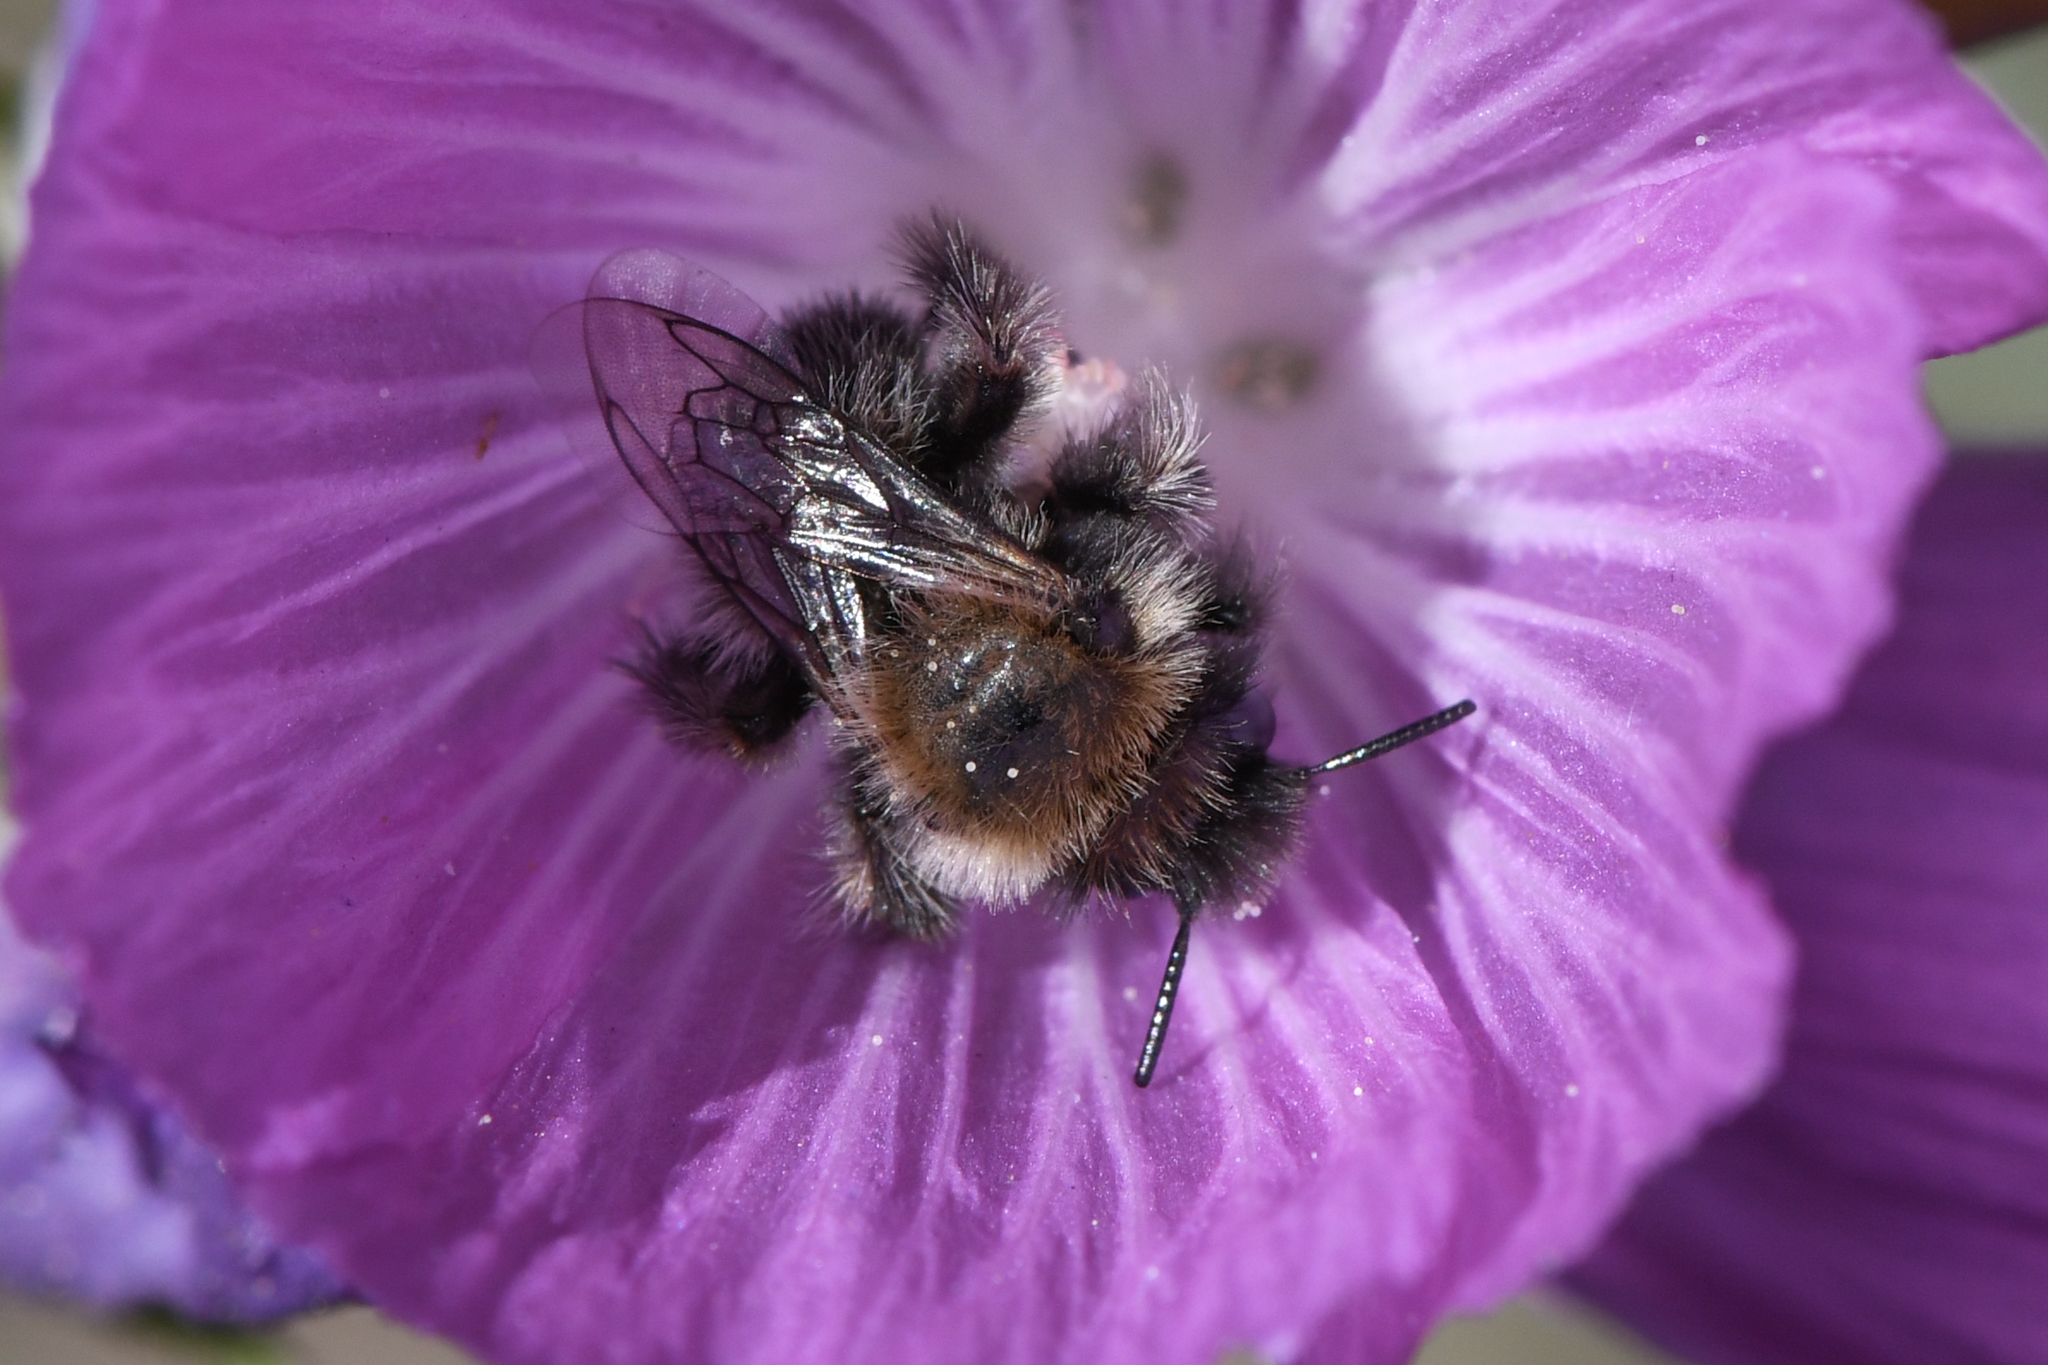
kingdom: Animalia
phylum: Arthropoda
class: Insecta
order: Hymenoptera
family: Apidae
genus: Diadasia
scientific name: Diadasia nigrifrons
